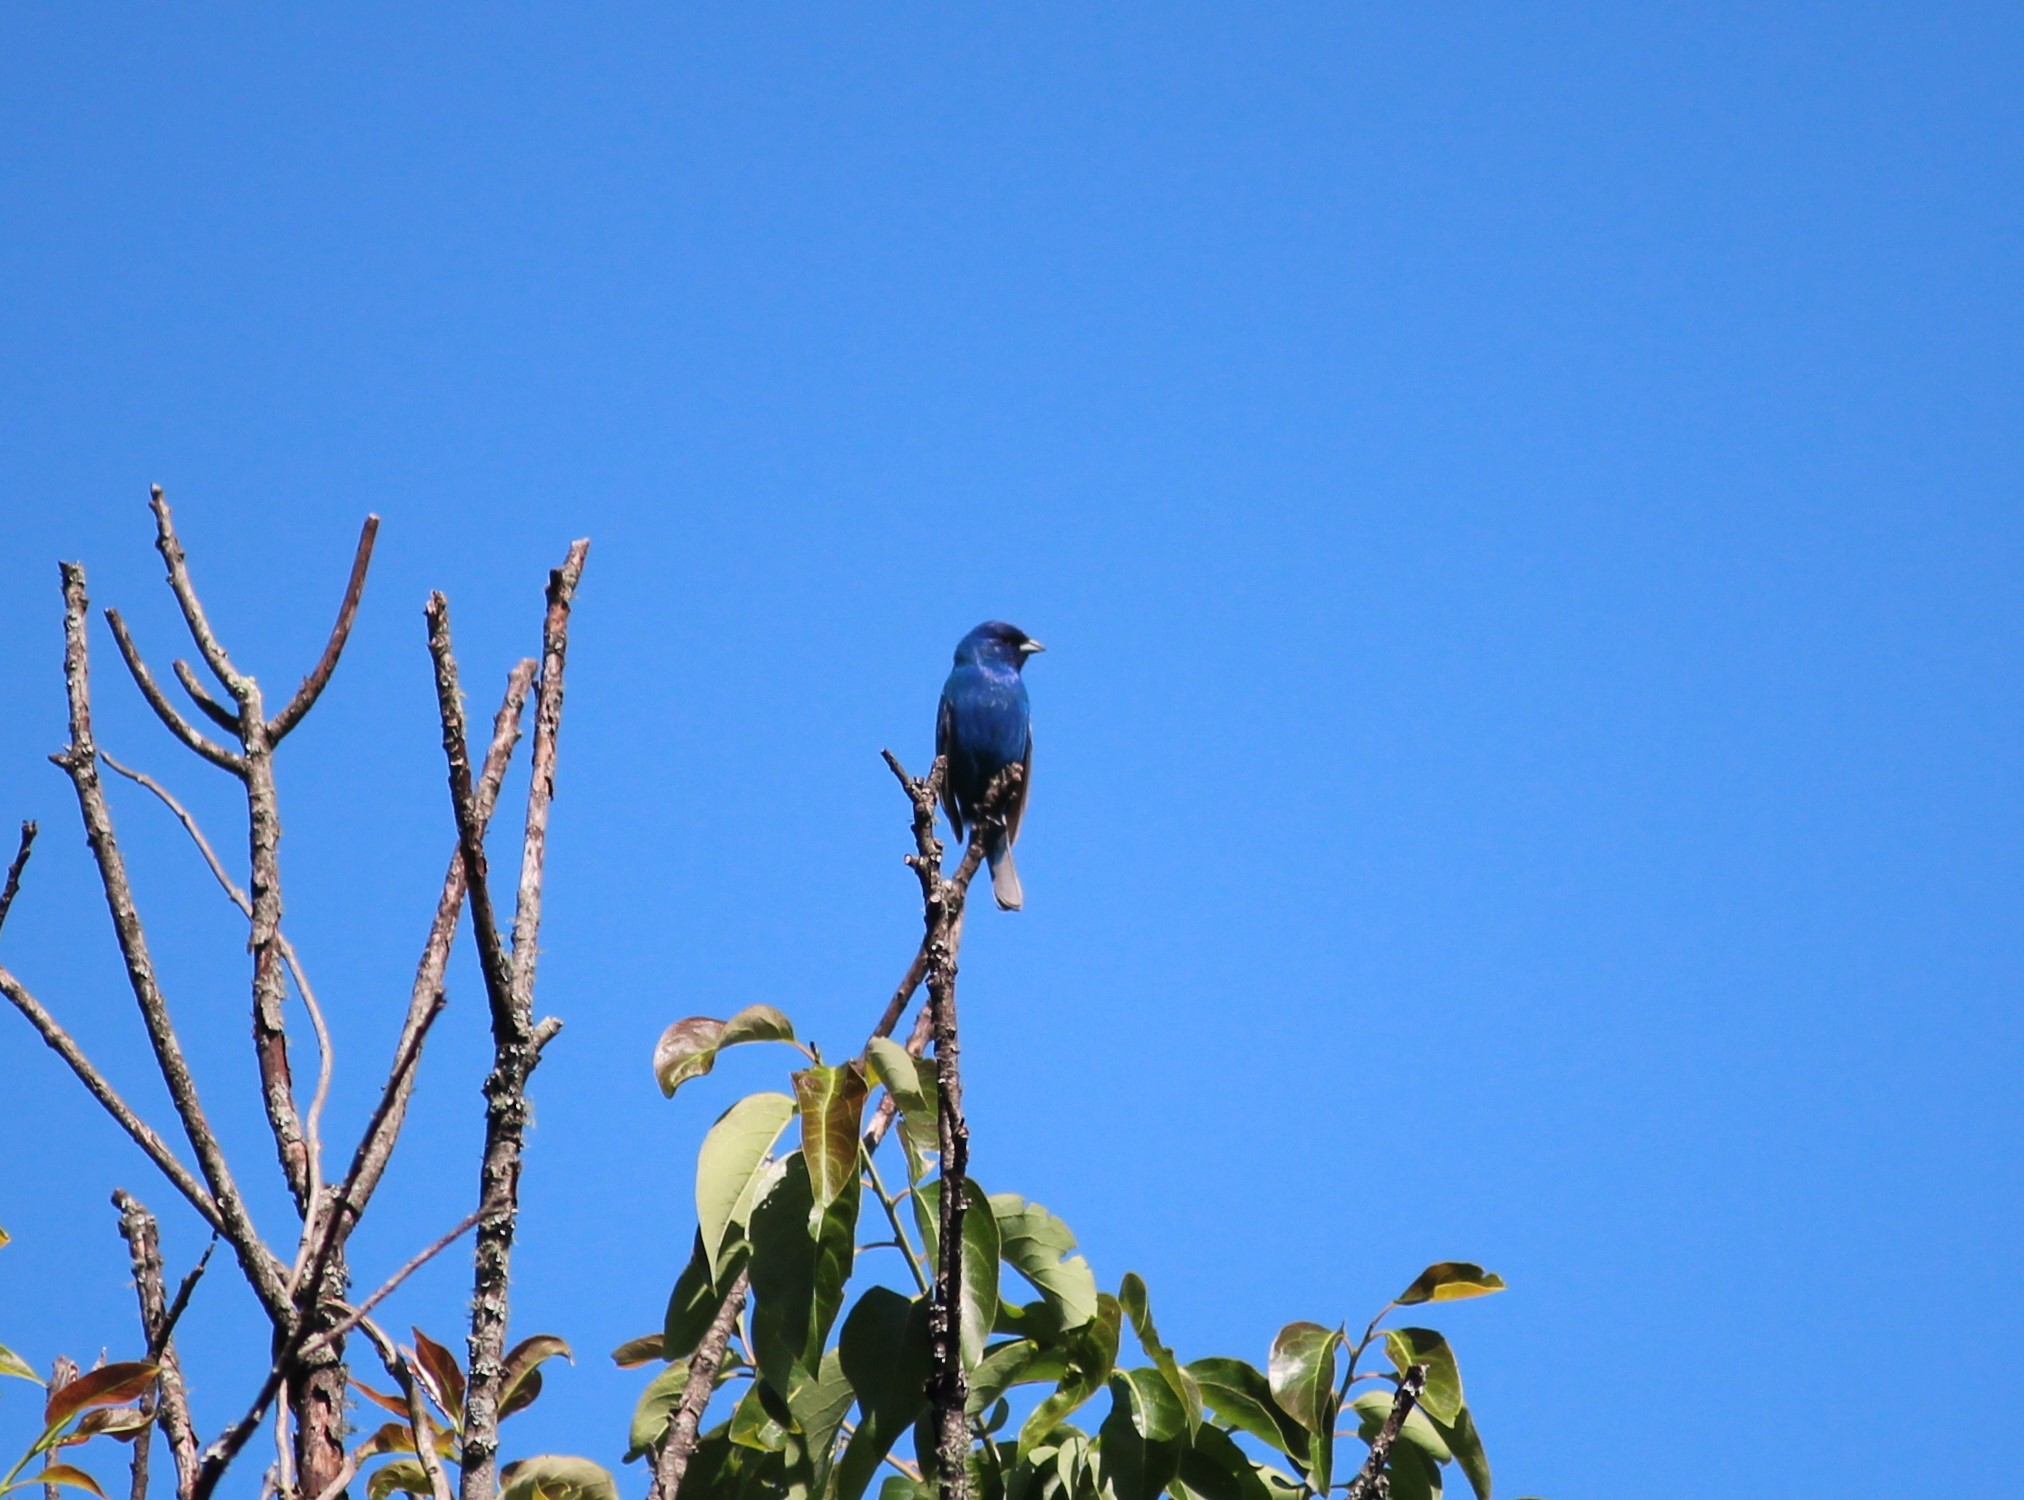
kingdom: Animalia
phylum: Chordata
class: Aves
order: Passeriformes
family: Cardinalidae
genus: Passerina
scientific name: Passerina cyanea
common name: Indigo bunting
